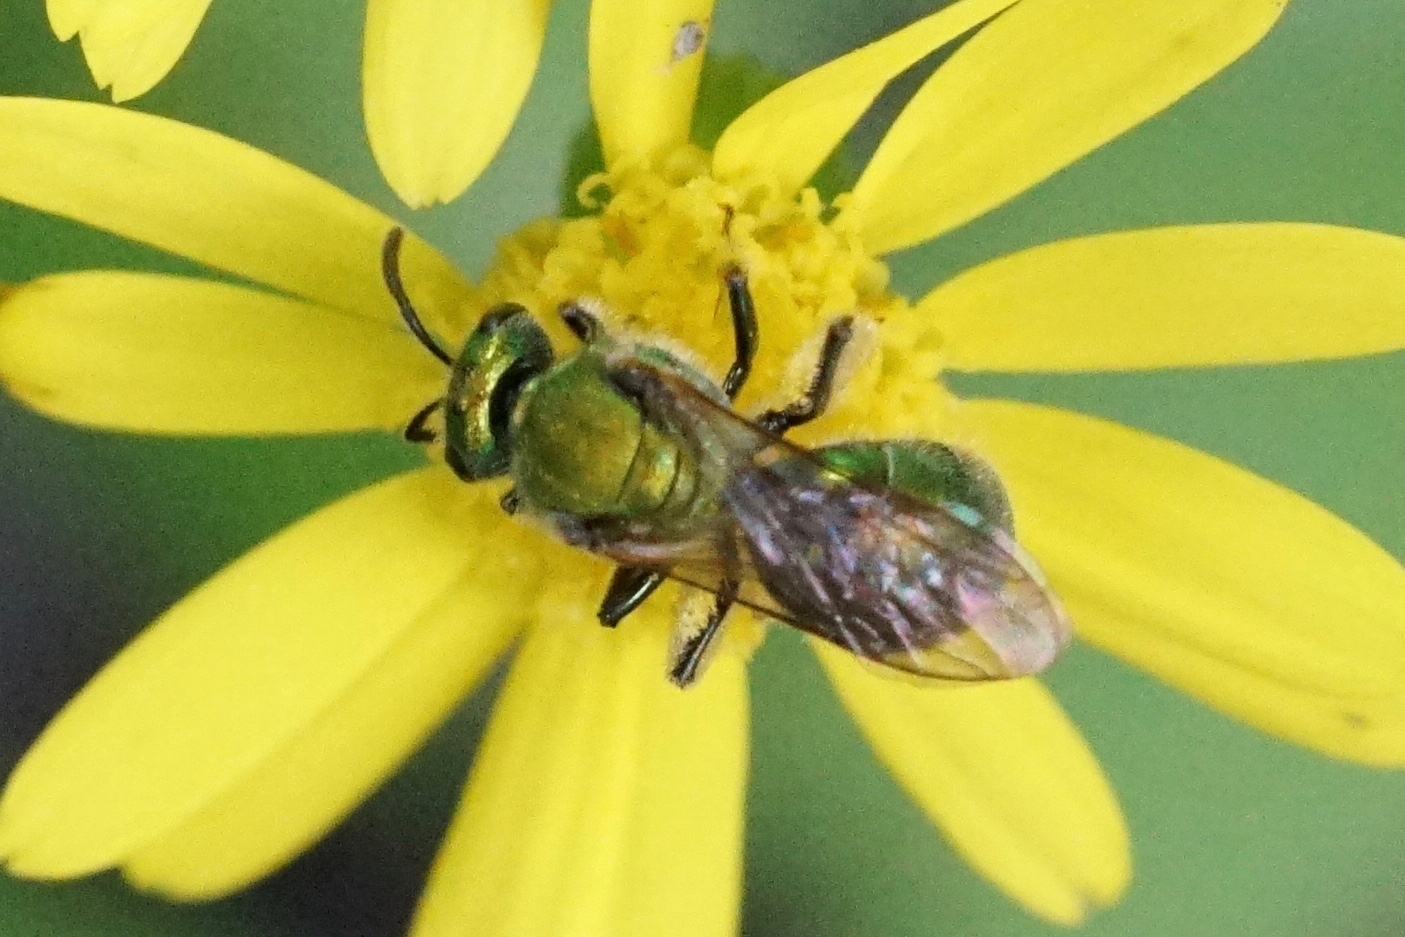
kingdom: Animalia
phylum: Arthropoda
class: Insecta
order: Hymenoptera
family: Halictidae
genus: Augochlora
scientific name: Augochlora pura
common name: Pure green sweat bee
